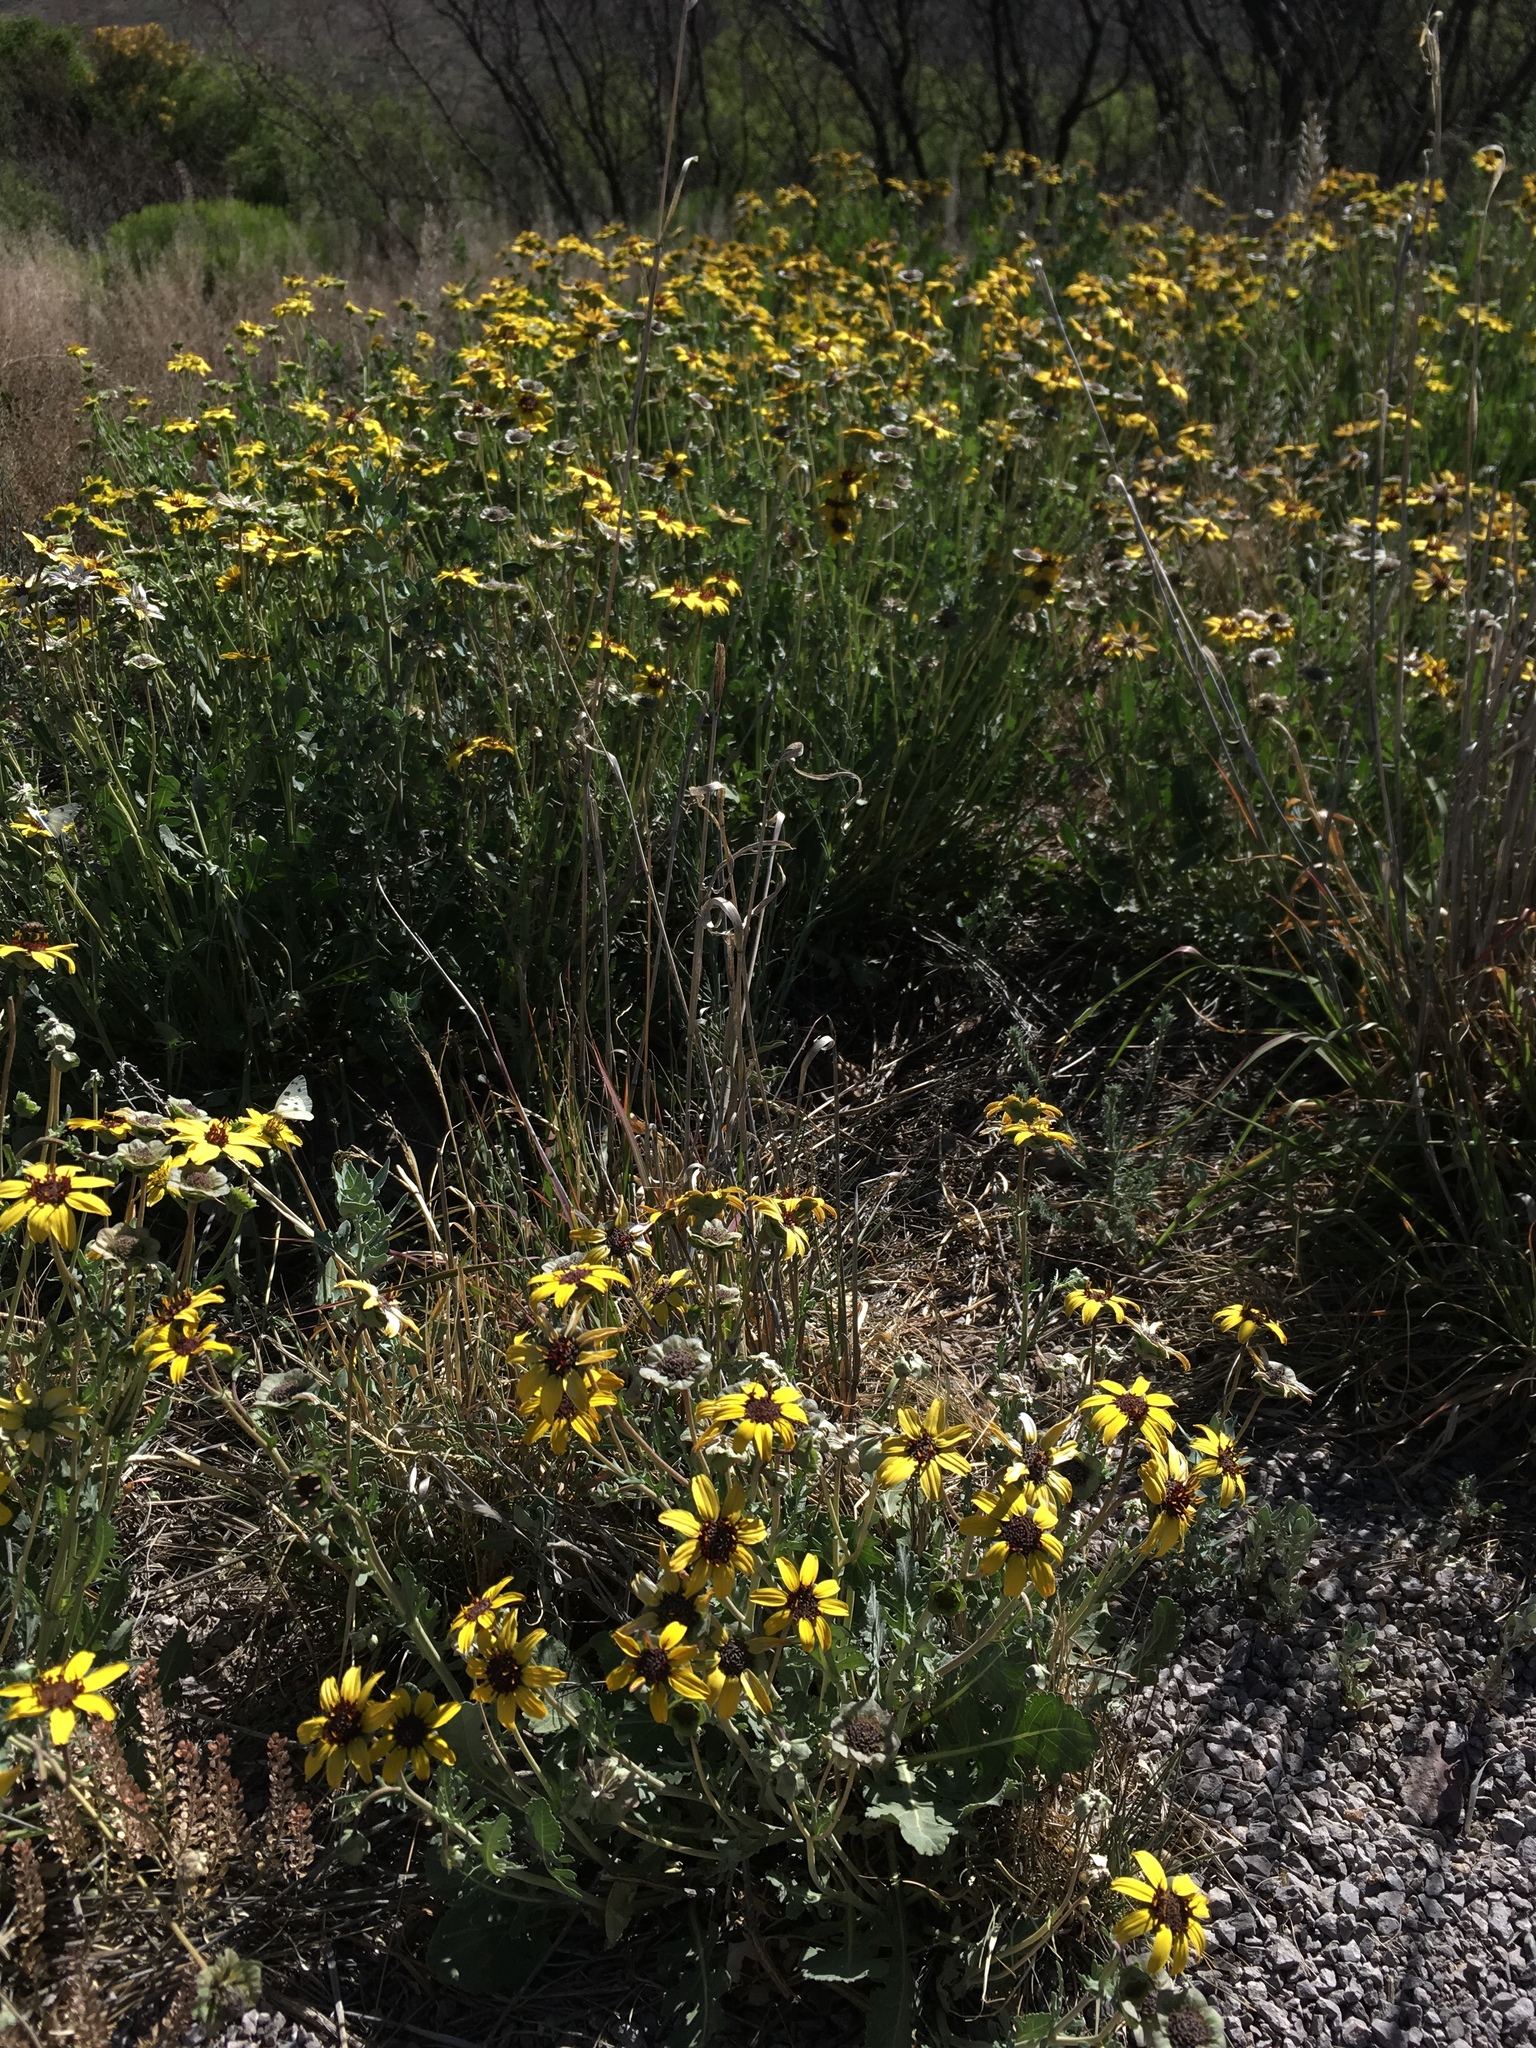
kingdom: Plantae
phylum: Tracheophyta
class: Magnoliopsida
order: Asterales
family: Asteraceae
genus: Berlandiera
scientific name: Berlandiera lyrata
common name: Chocolate-flower
